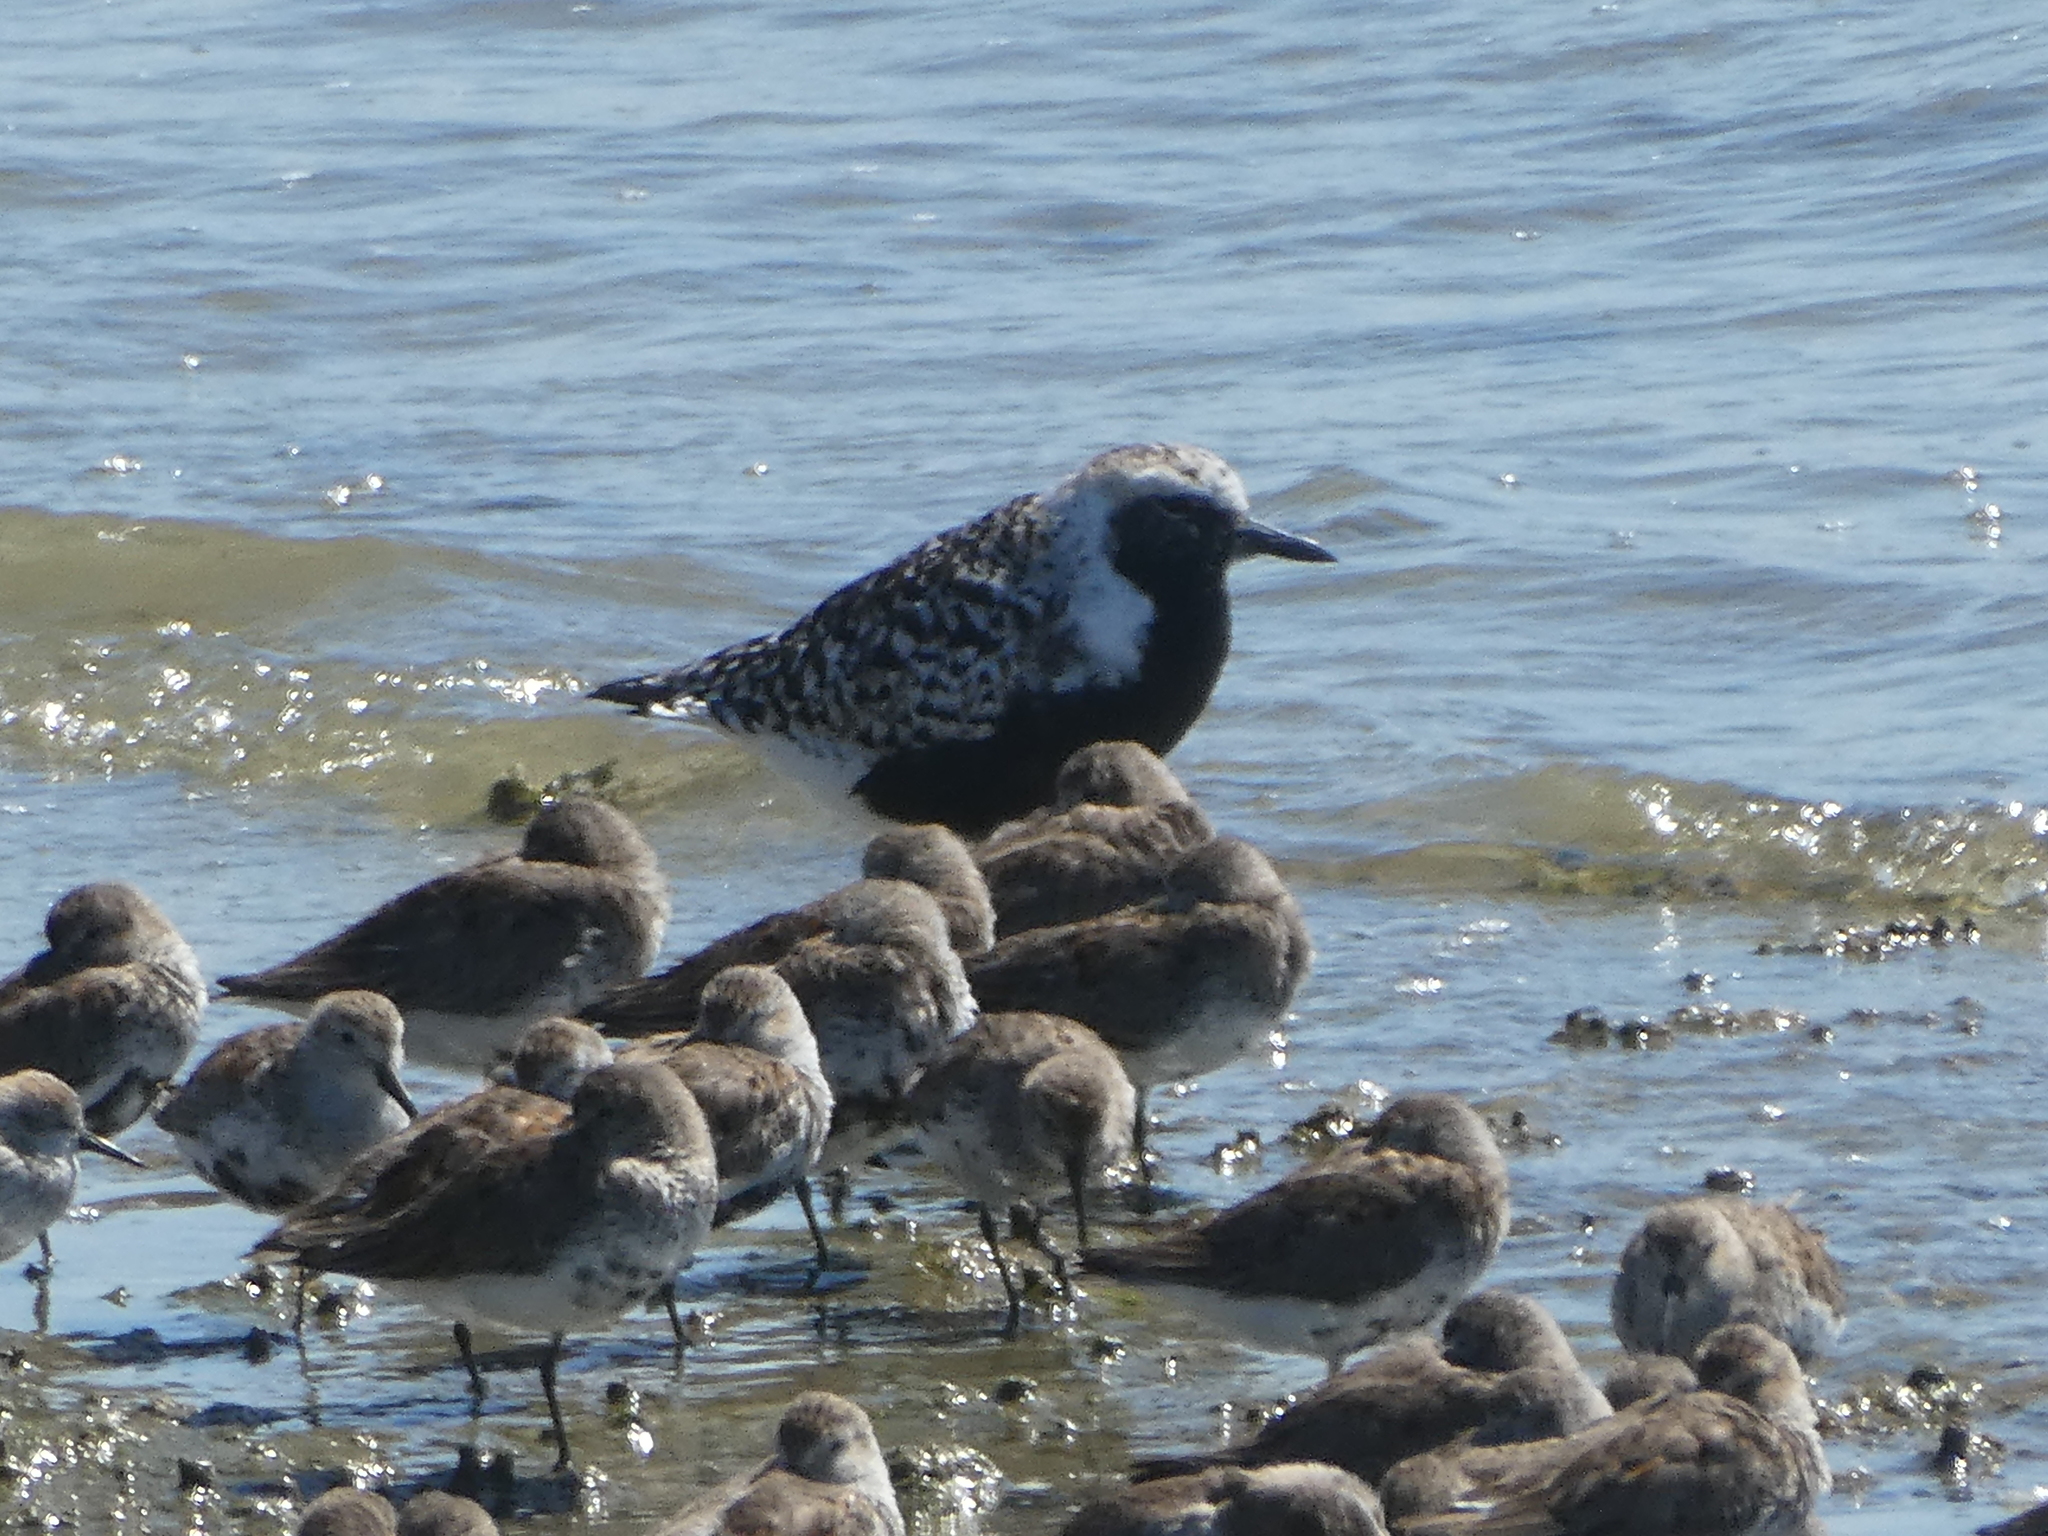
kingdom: Animalia
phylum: Chordata
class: Aves
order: Charadriiformes
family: Charadriidae
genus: Pluvialis
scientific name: Pluvialis squatarola
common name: Grey plover
